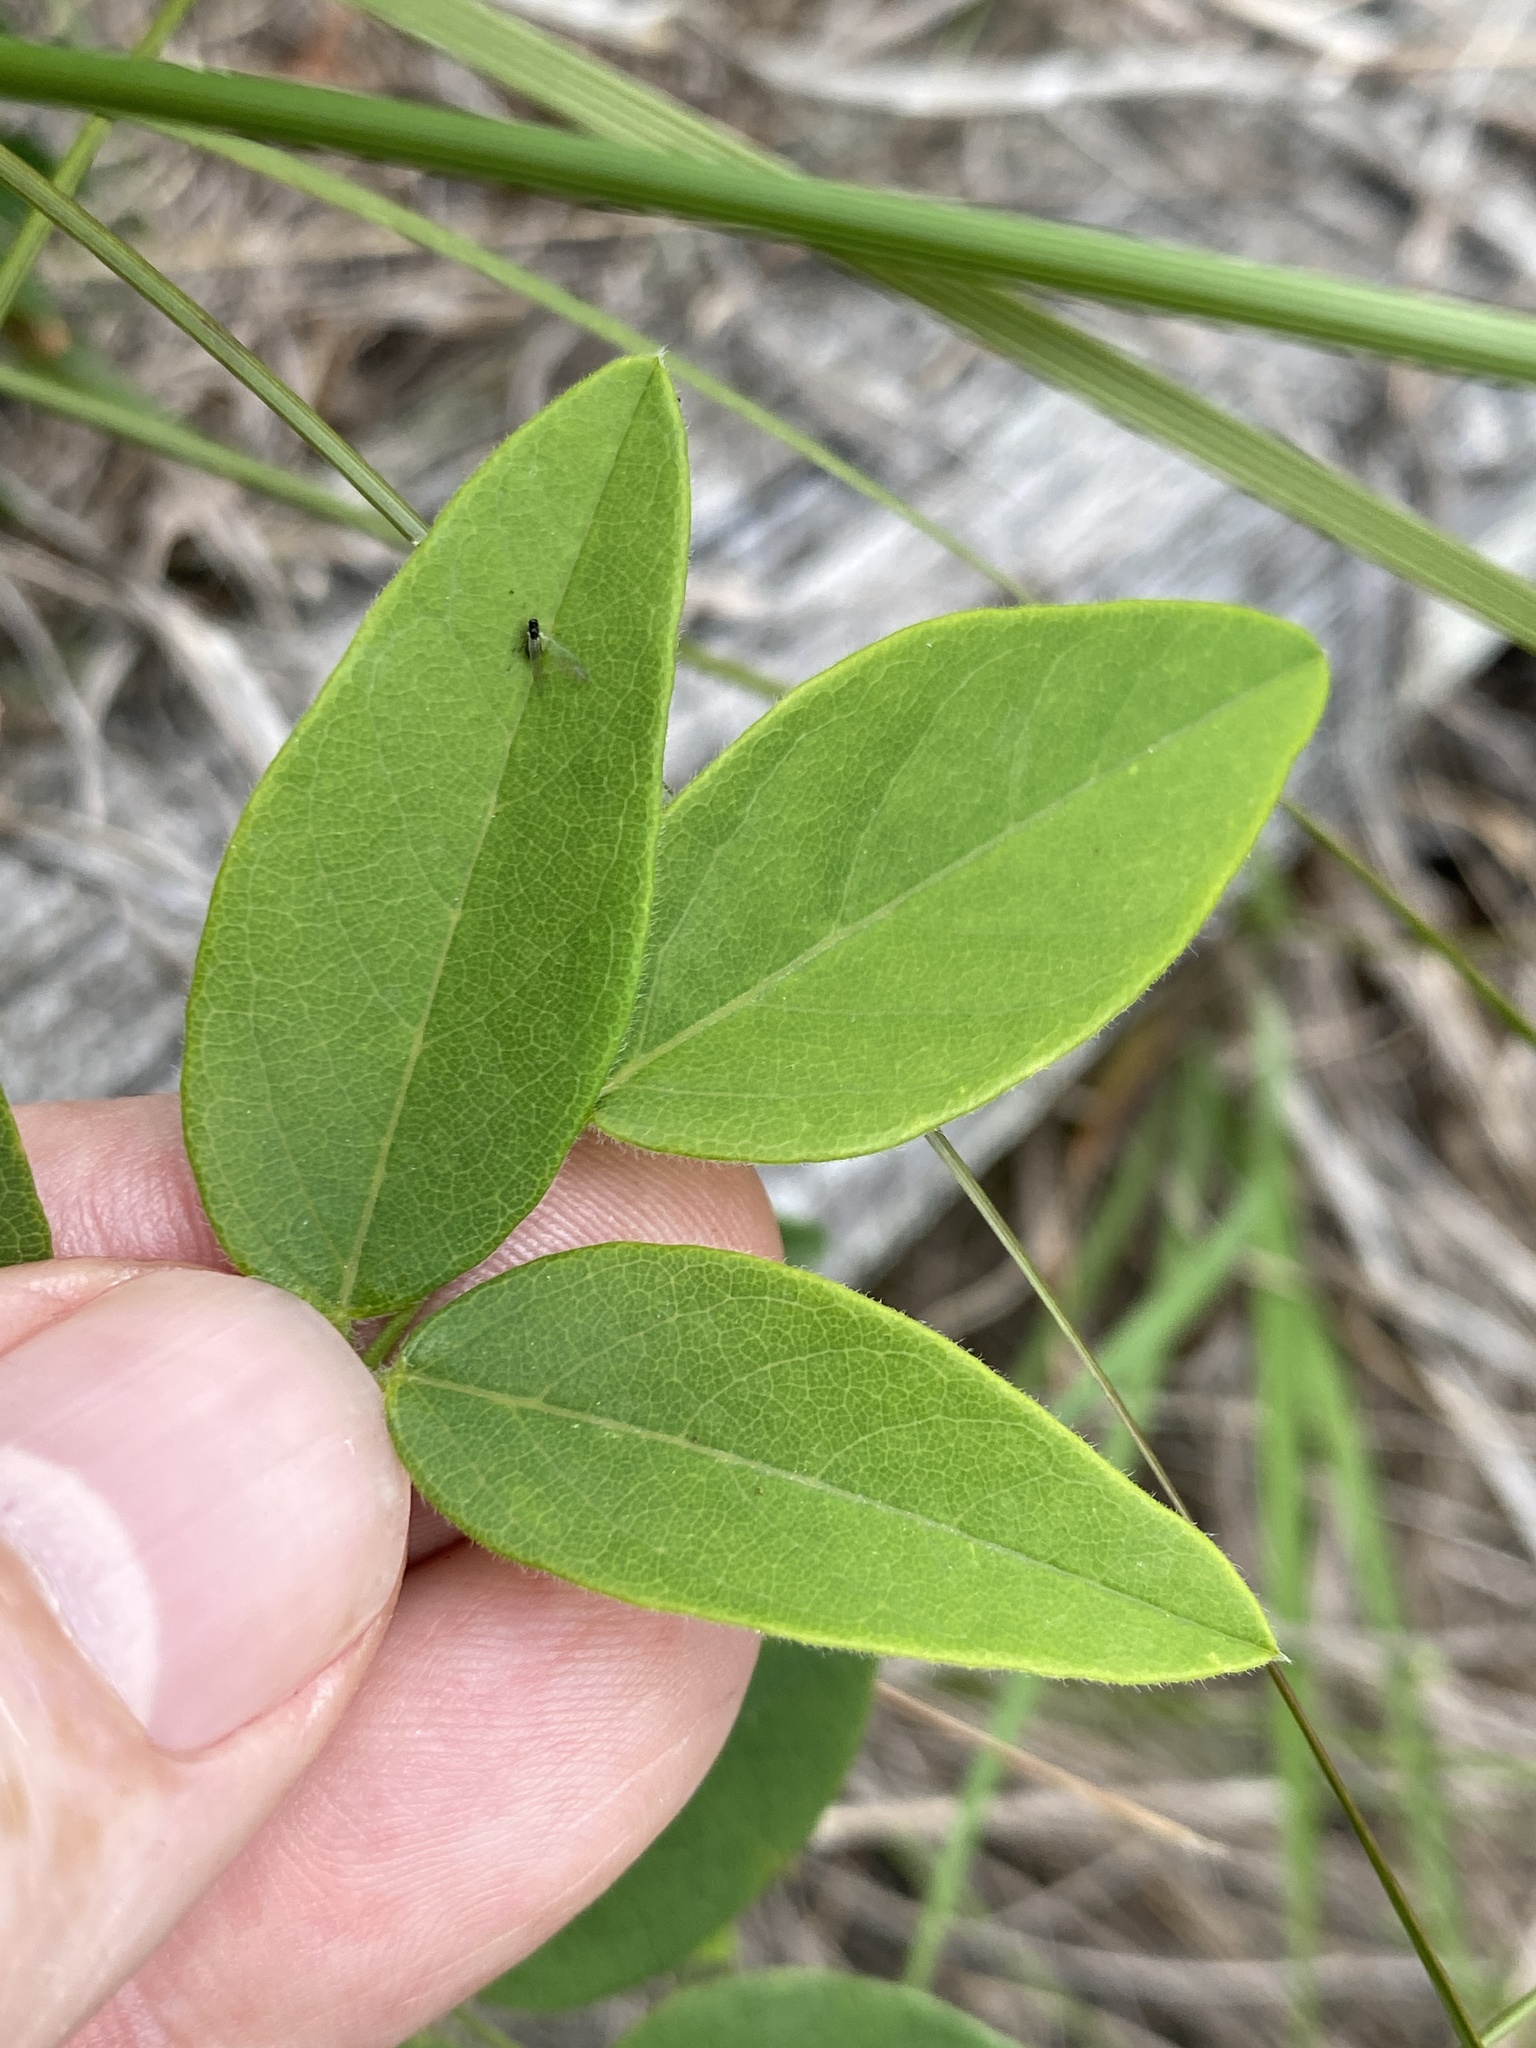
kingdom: Plantae
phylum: Tracheophyta
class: Magnoliopsida
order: Fabales
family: Fabaceae
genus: Centrosema
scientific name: Centrosema virginianum
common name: Butterfly-pea
